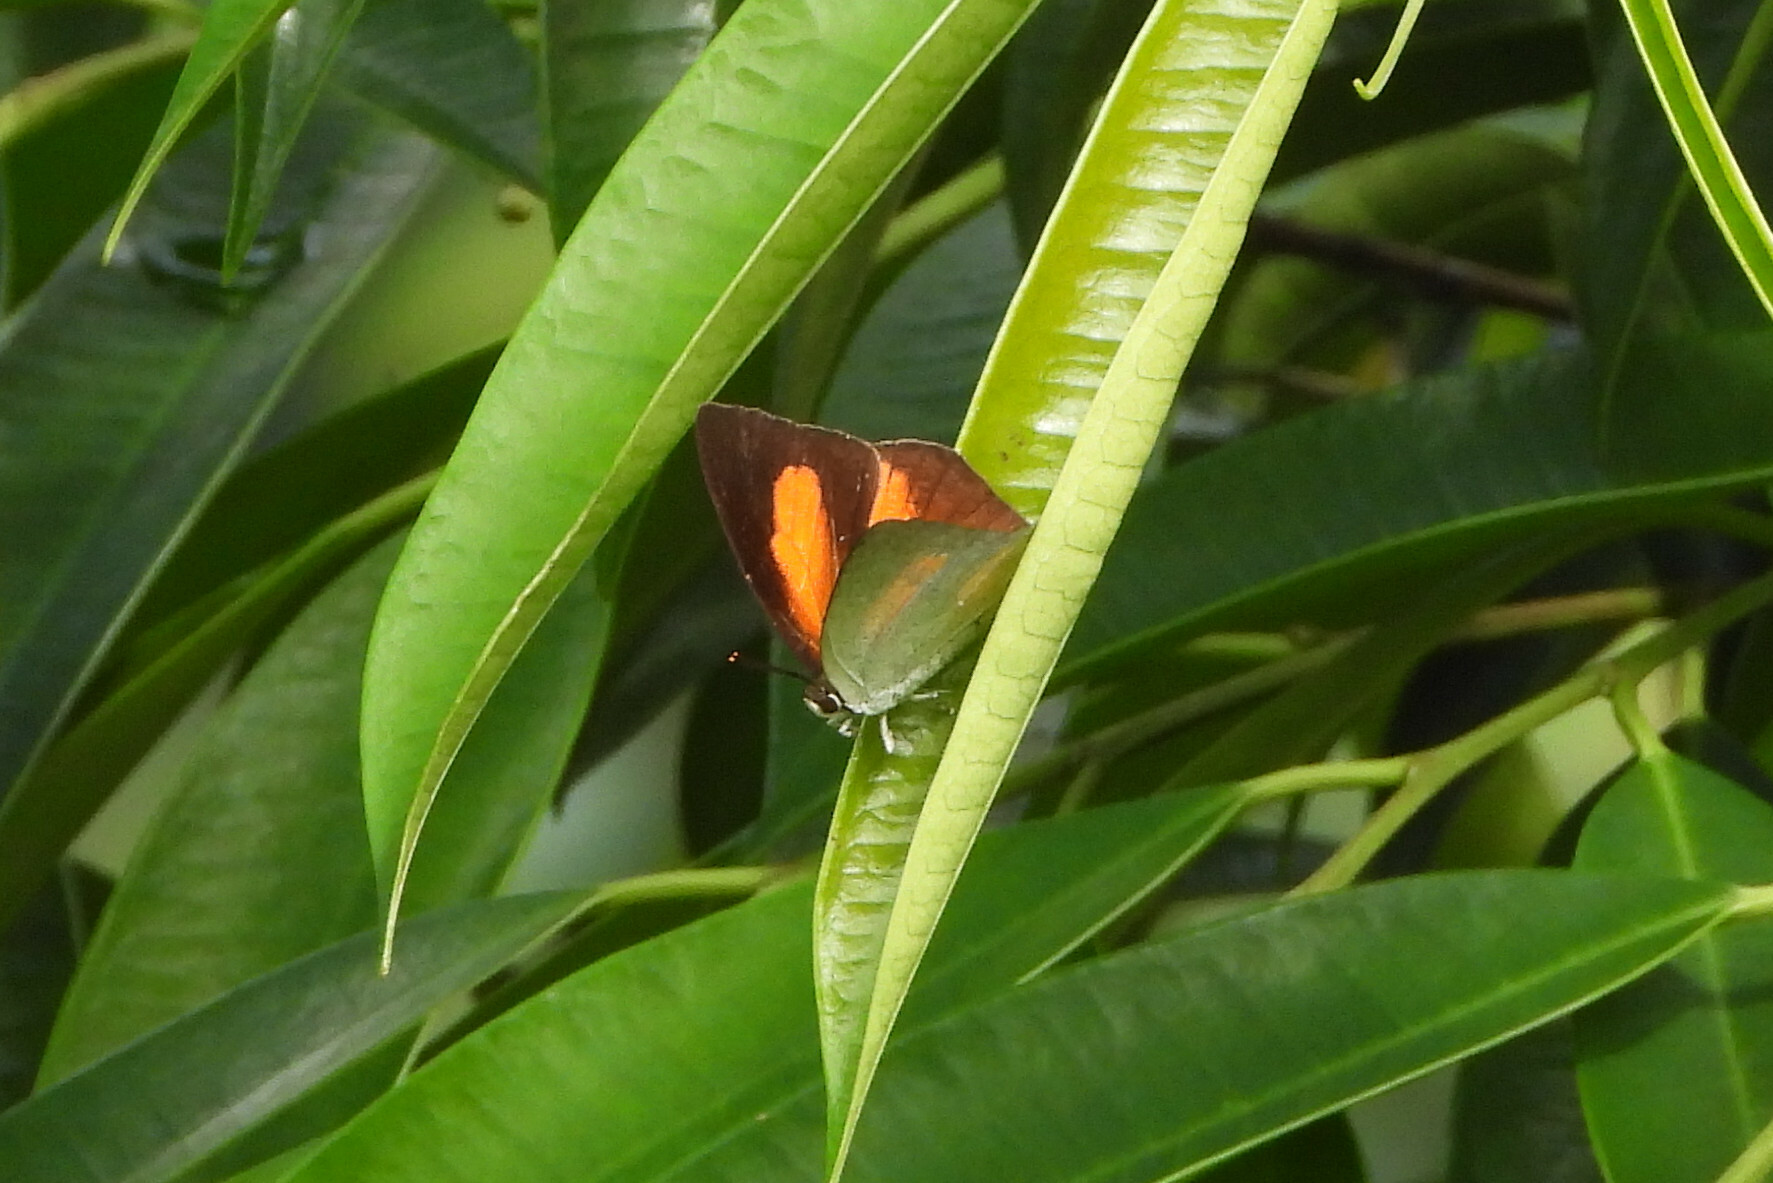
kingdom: Animalia
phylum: Arthropoda
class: Insecta
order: Lepidoptera
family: Lycaenidae
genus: Curetis
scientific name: Curetis bulis
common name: Bright sunbeam
